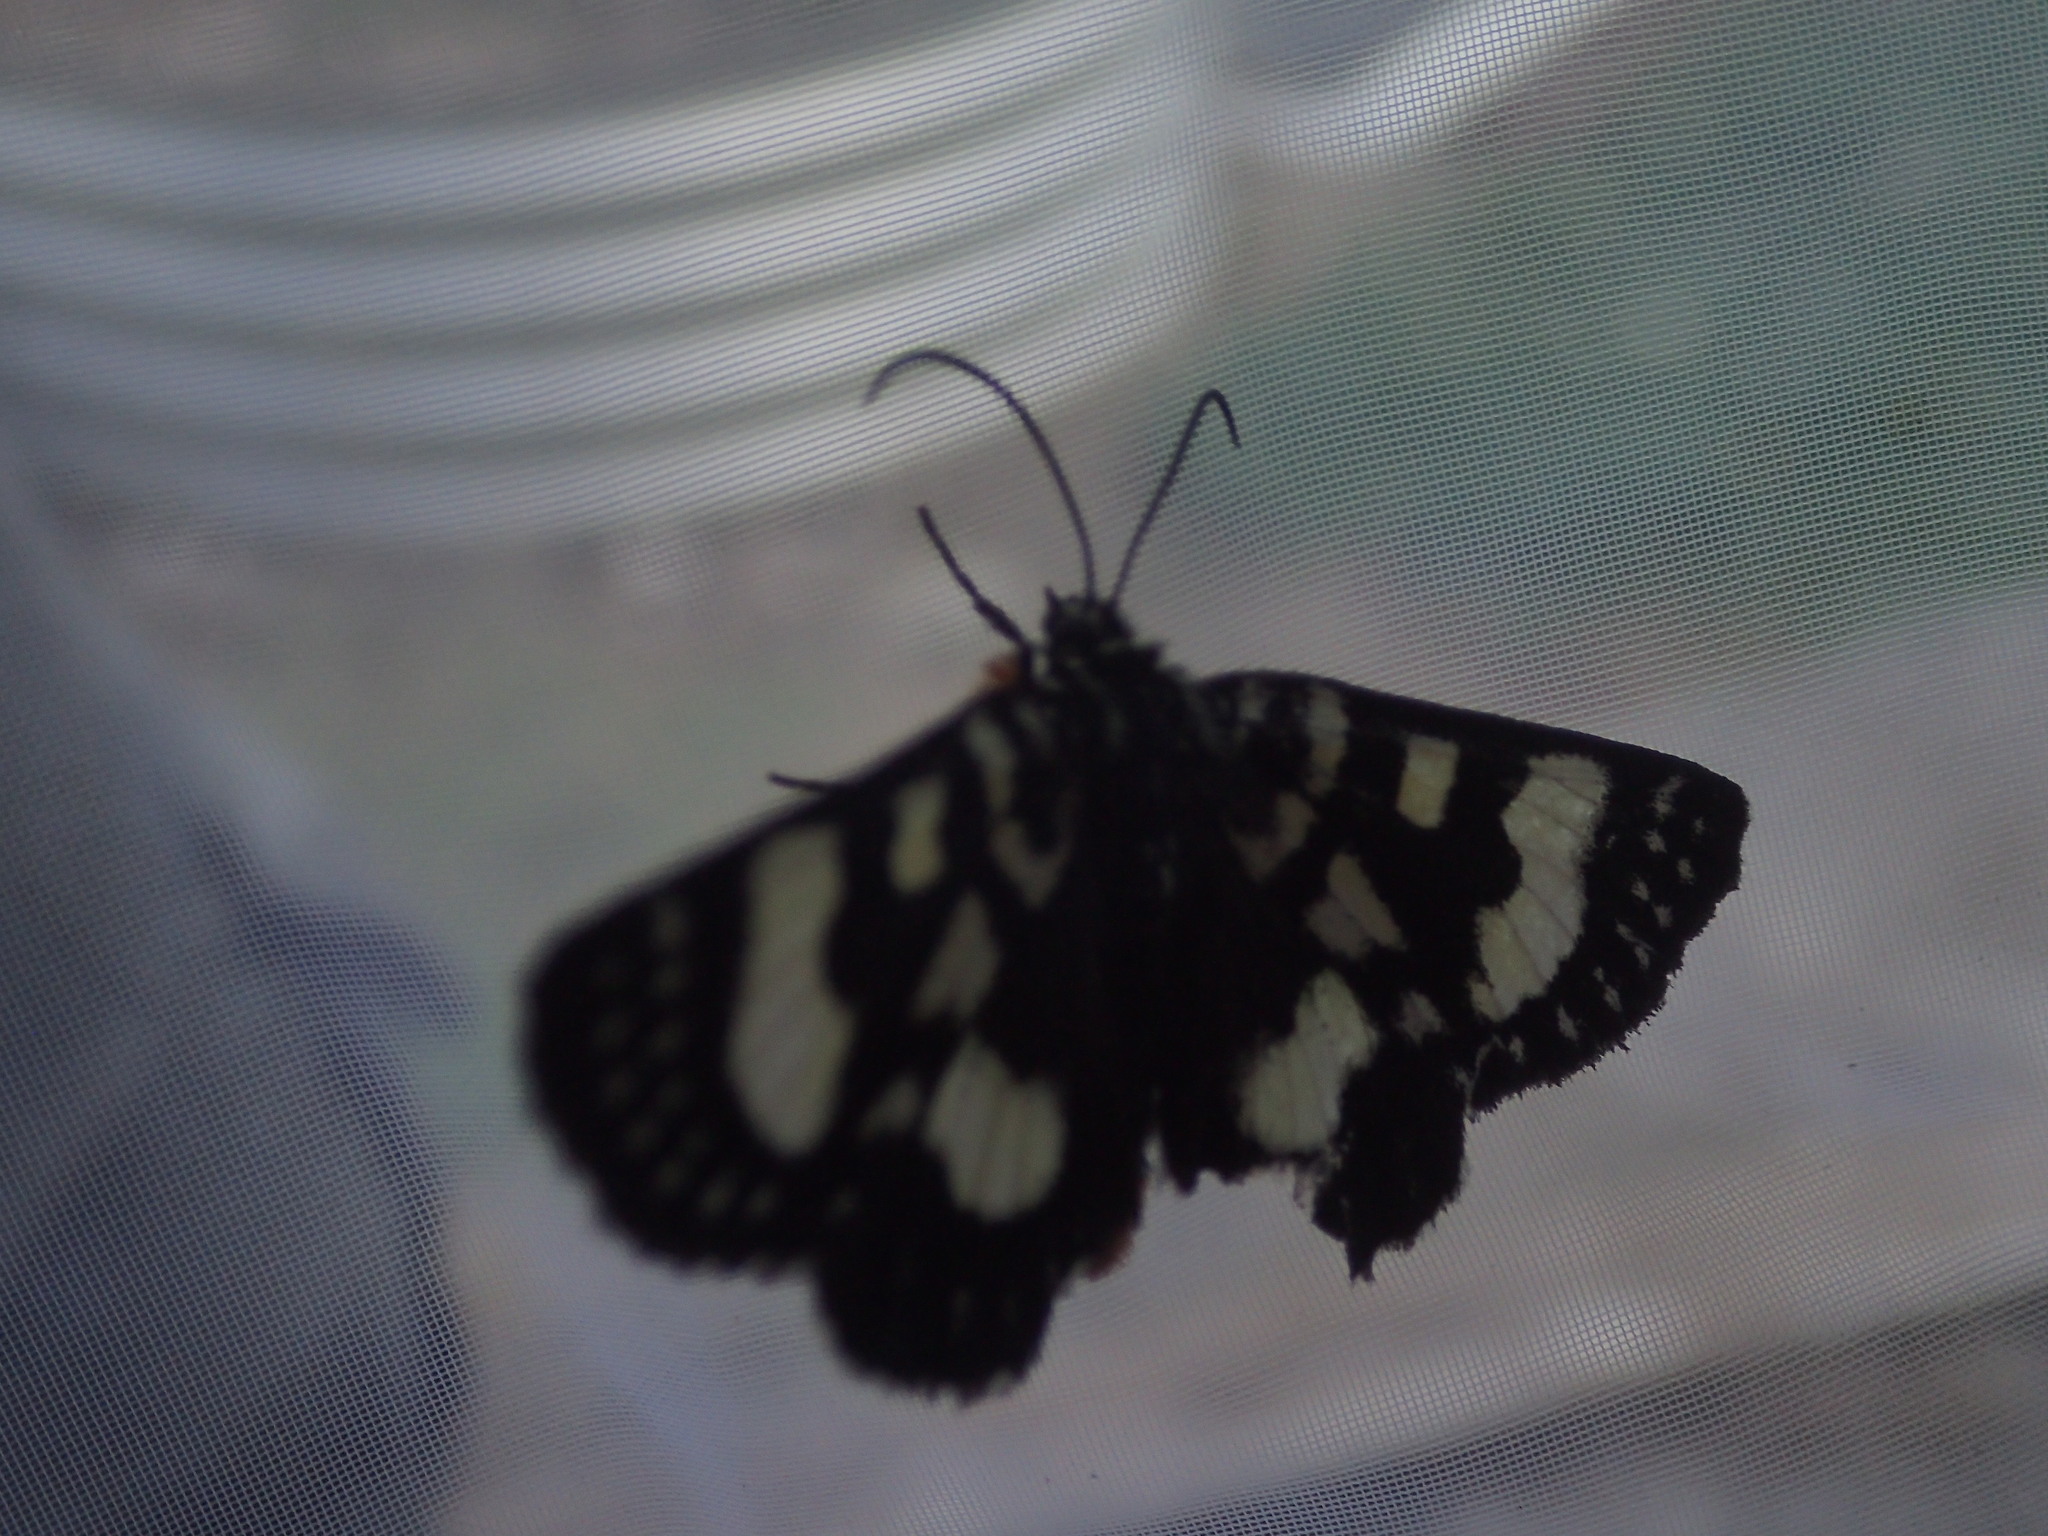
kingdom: Animalia
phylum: Arthropoda
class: Insecta
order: Lepidoptera
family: Noctuidae
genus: Phalaenoides
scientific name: Phalaenoides tristifica
